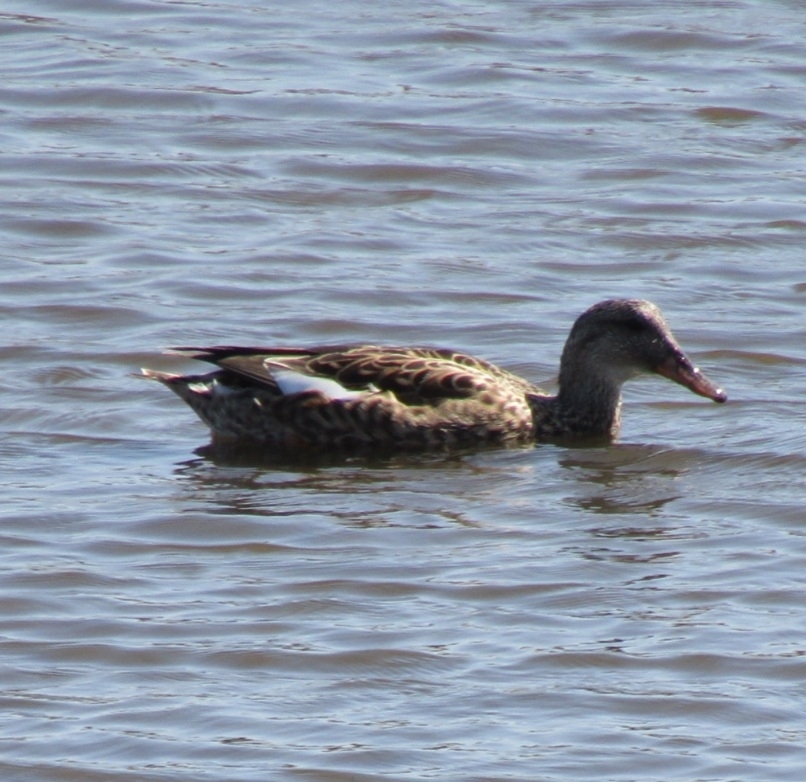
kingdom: Animalia
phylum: Chordata
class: Aves
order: Anseriformes
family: Anatidae
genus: Mareca
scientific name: Mareca strepera
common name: Gadwall
